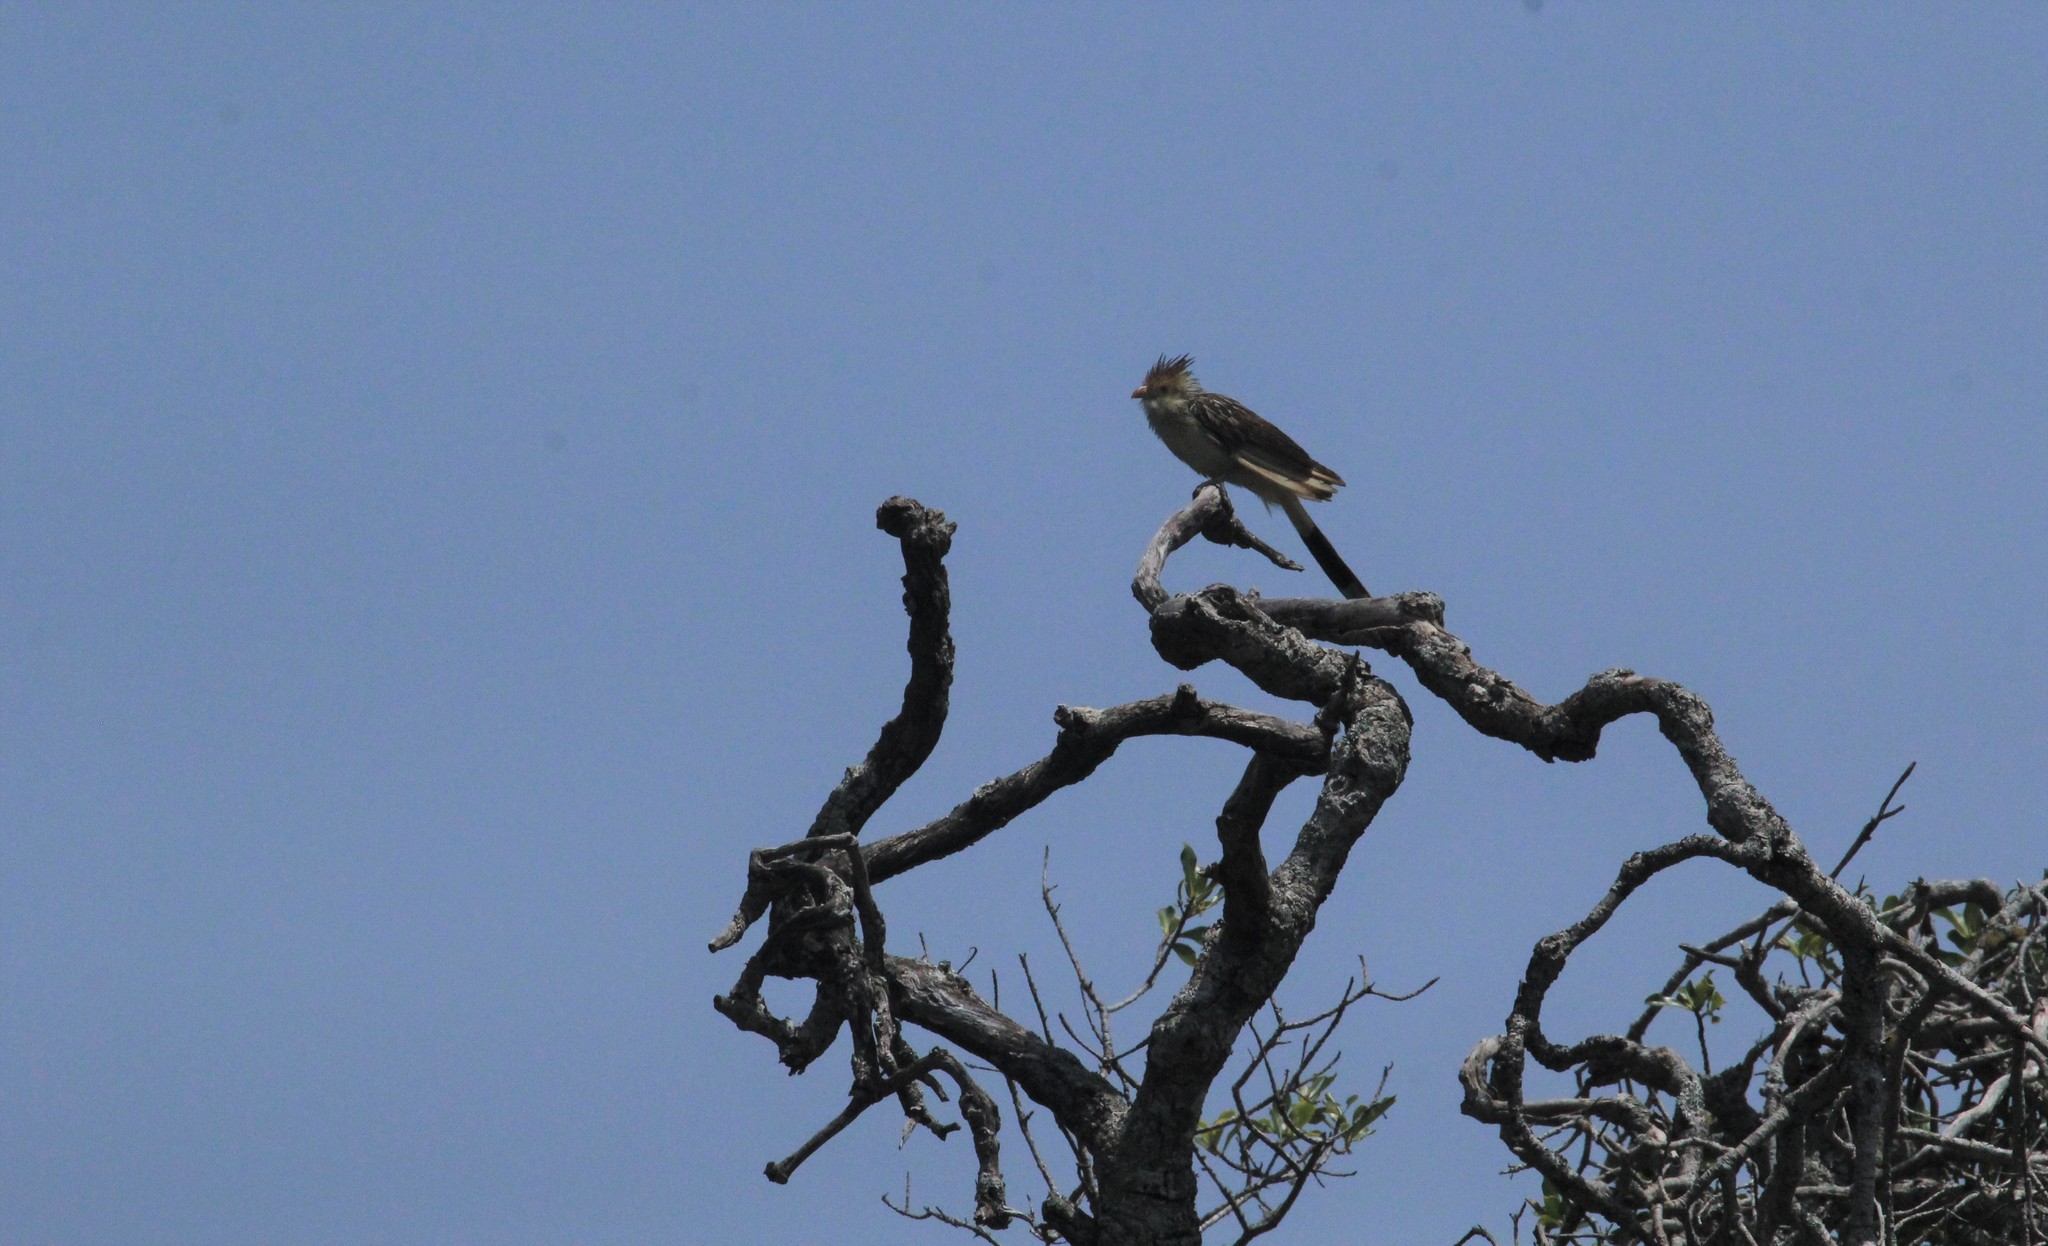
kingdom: Animalia
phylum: Chordata
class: Aves
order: Cuculiformes
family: Cuculidae
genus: Guira
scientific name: Guira guira
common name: Guira cuckoo
